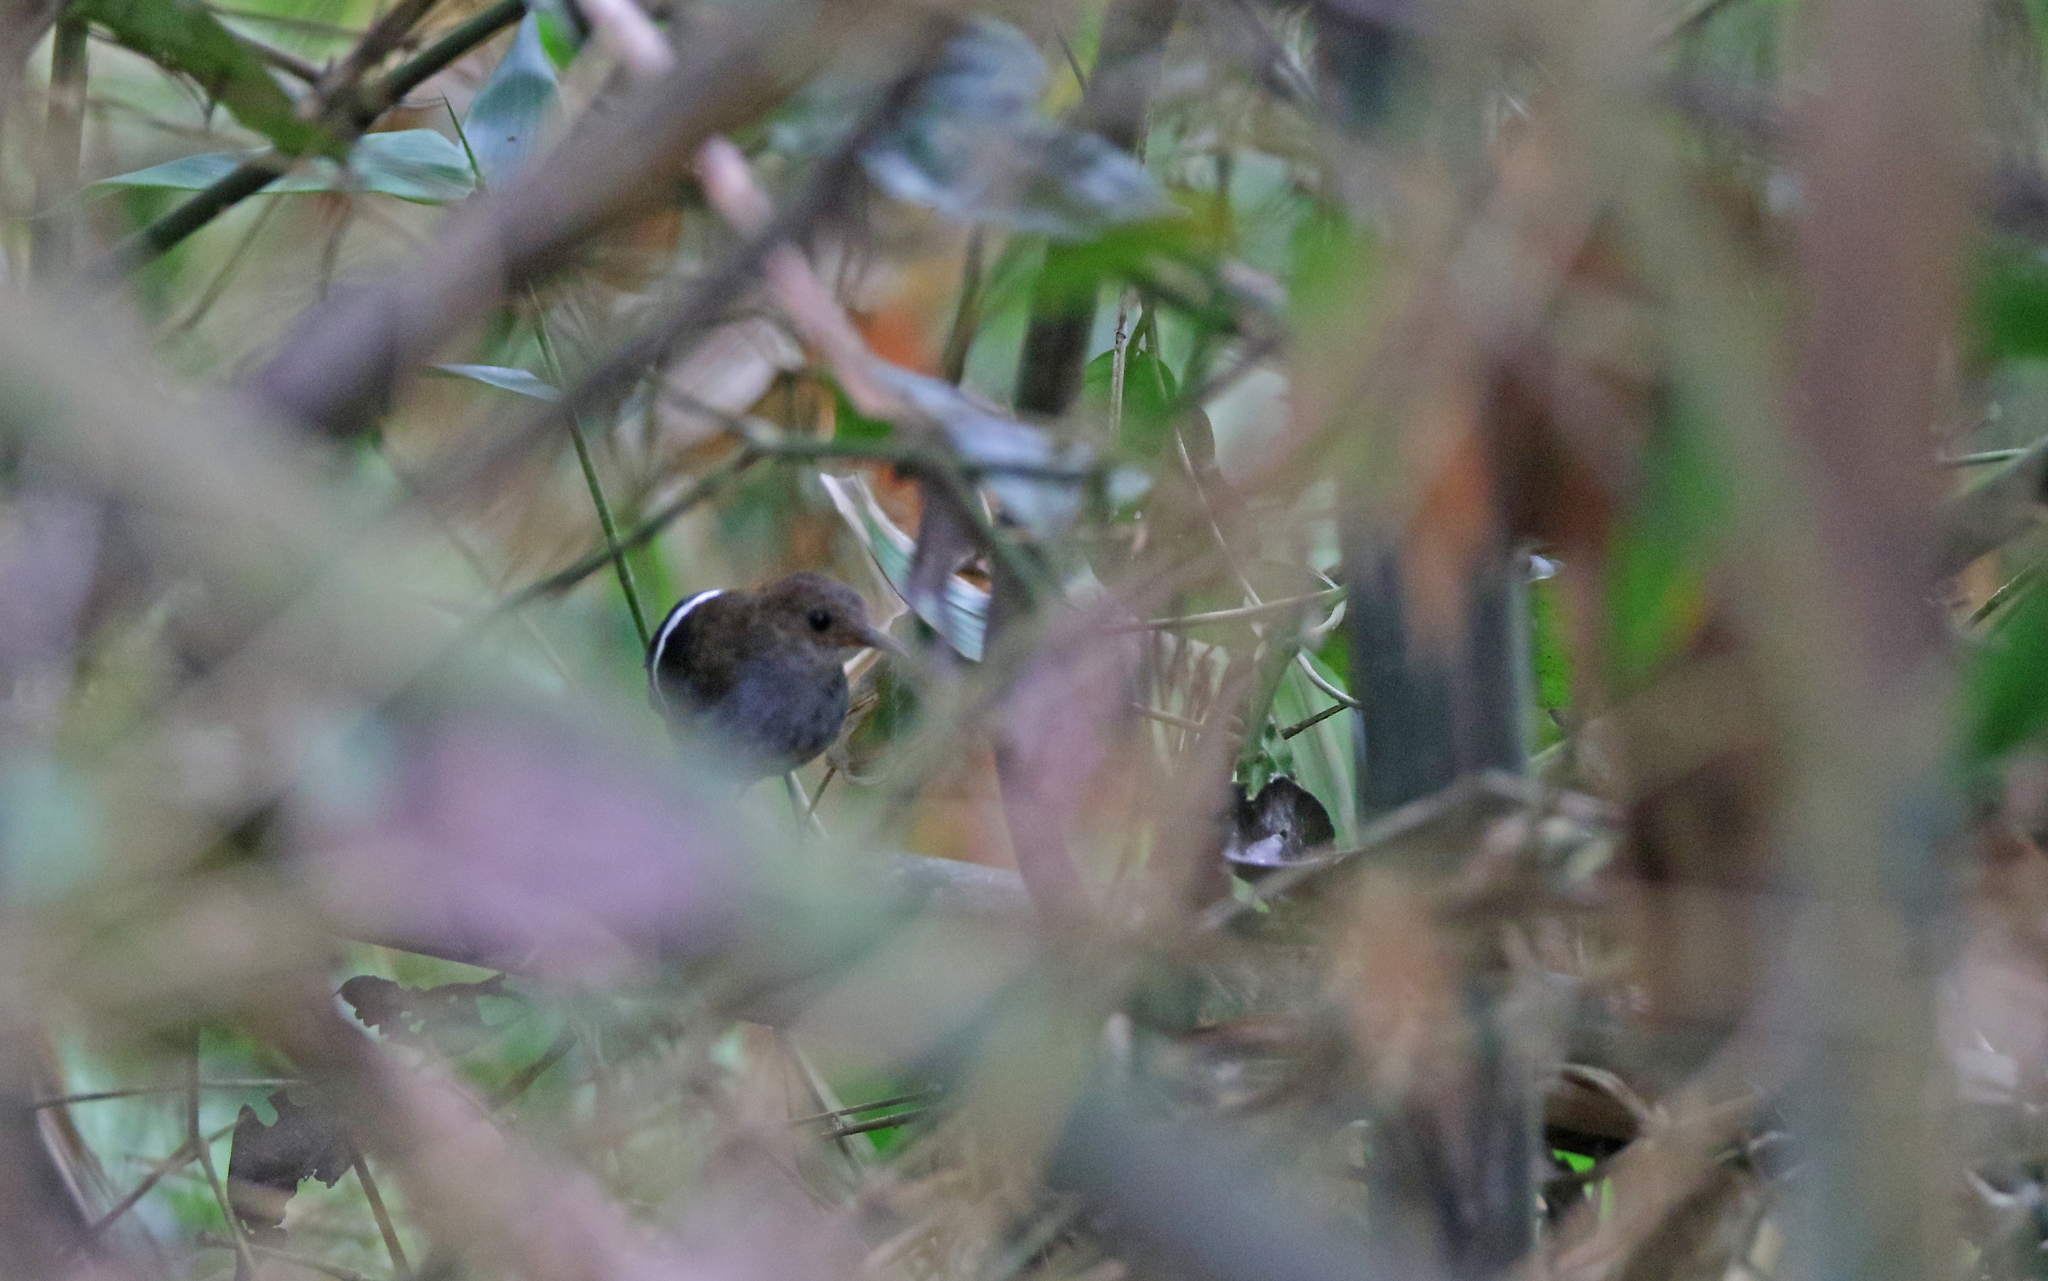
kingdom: Animalia
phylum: Chordata
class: Aves
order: Passeriformes
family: Troglodytidae
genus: Microcerculus
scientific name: Microcerculus bambla
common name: Wing-banded wren
